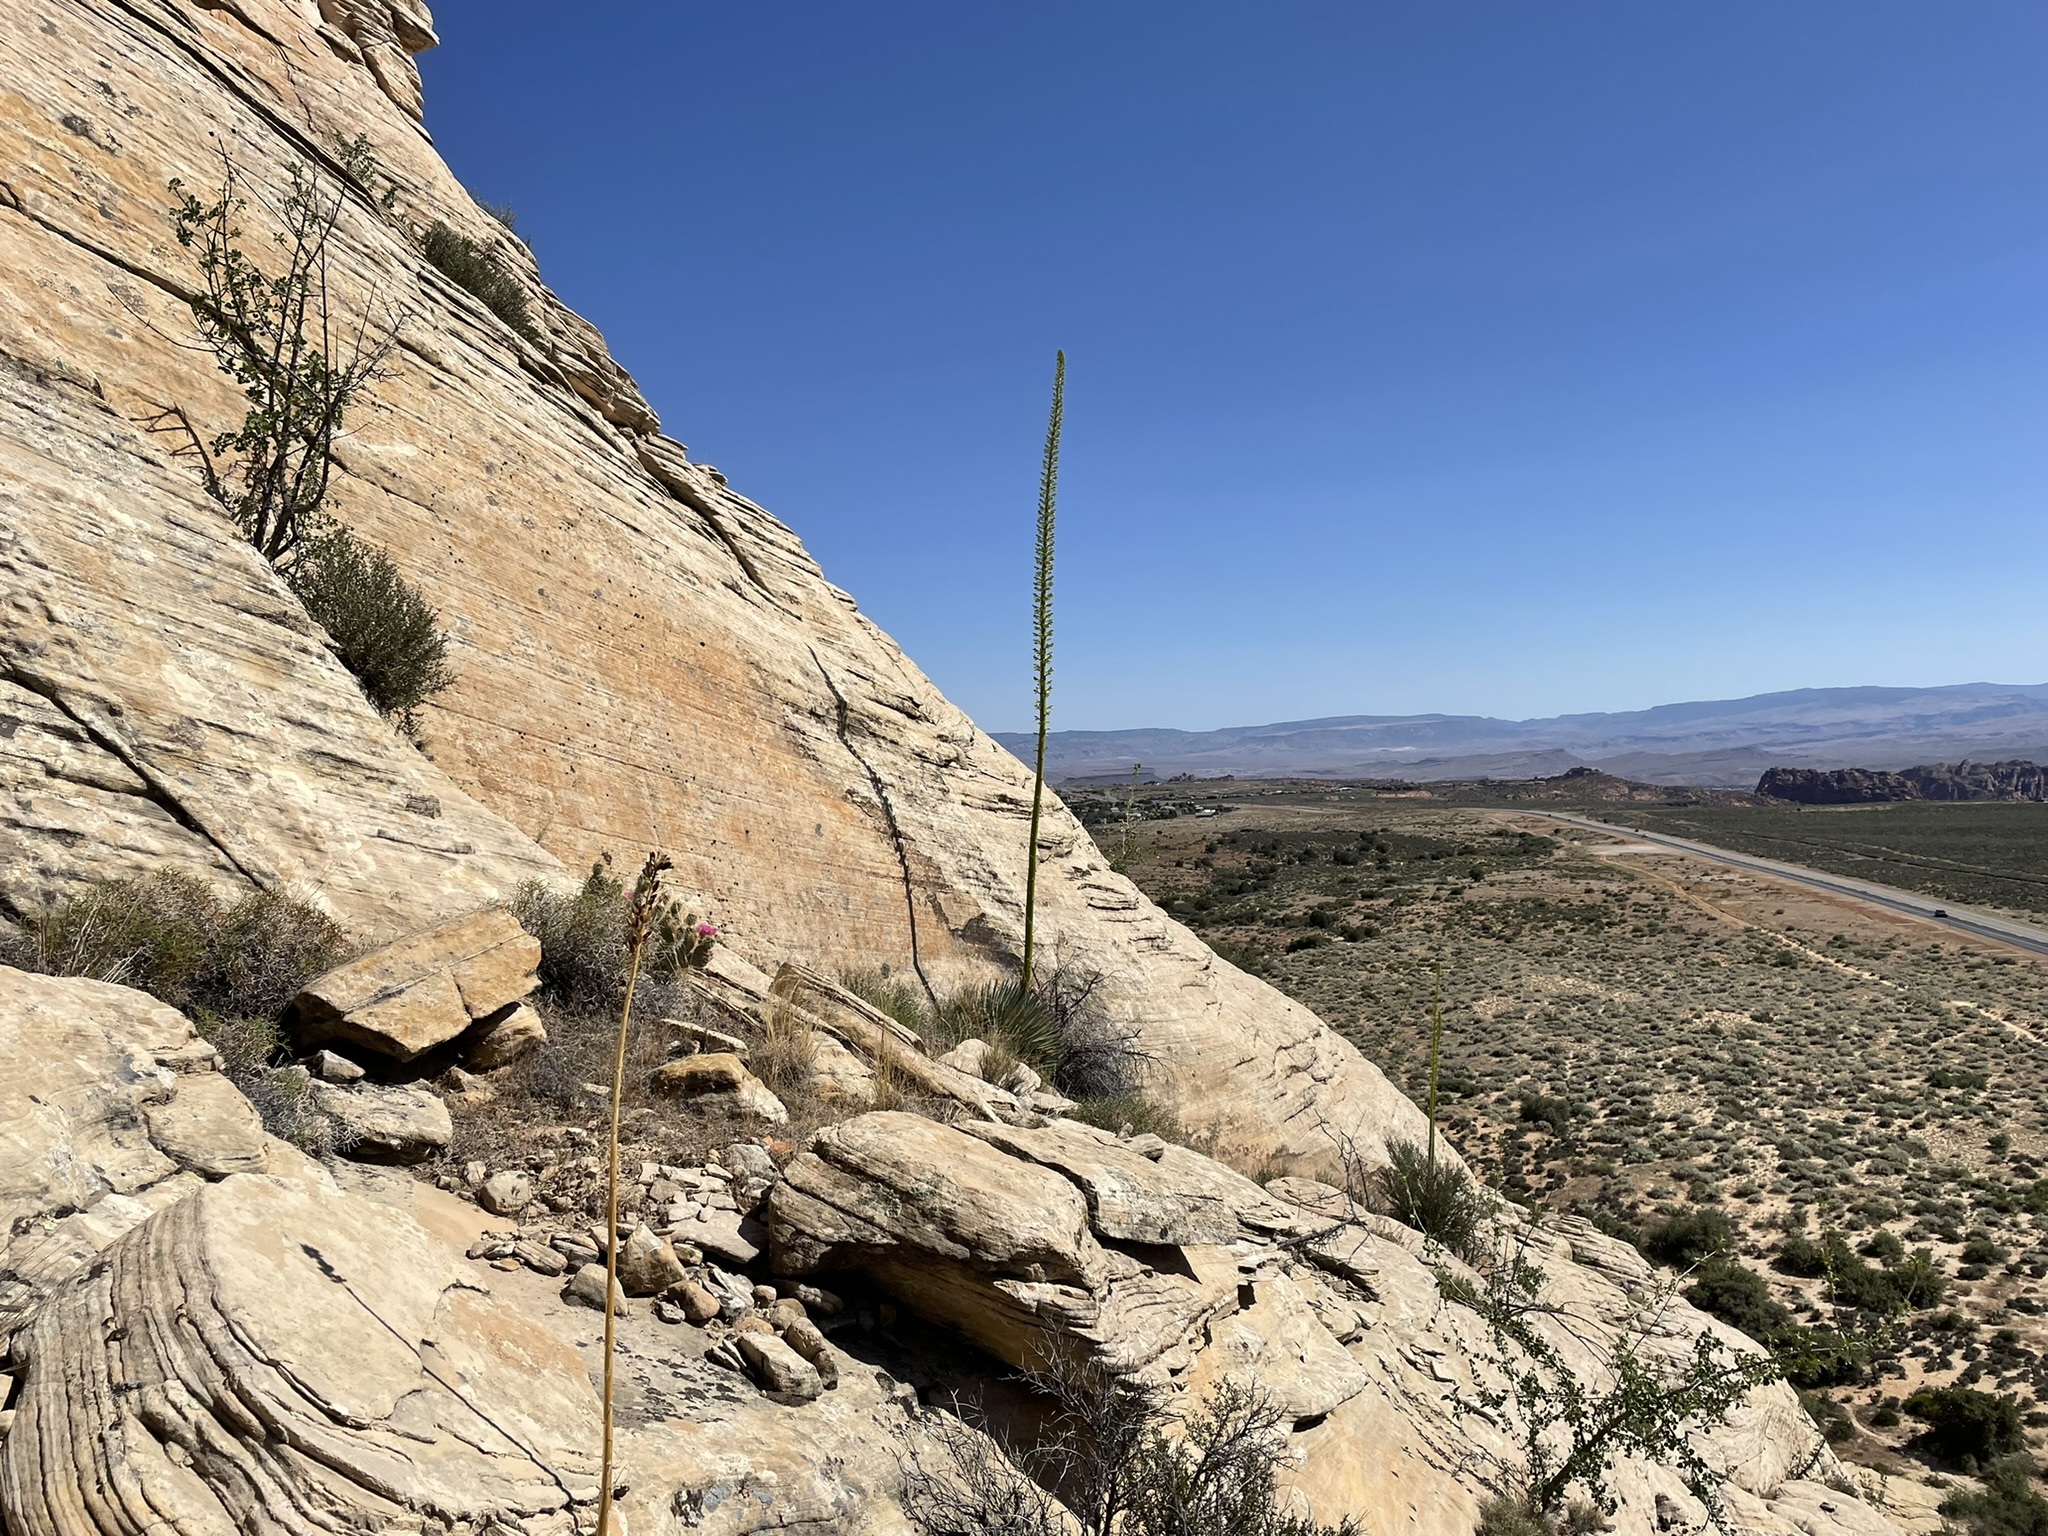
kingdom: Plantae
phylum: Tracheophyta
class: Liliopsida
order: Asparagales
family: Asparagaceae
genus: Agave
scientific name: Agave utahensis
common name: Utah agave
